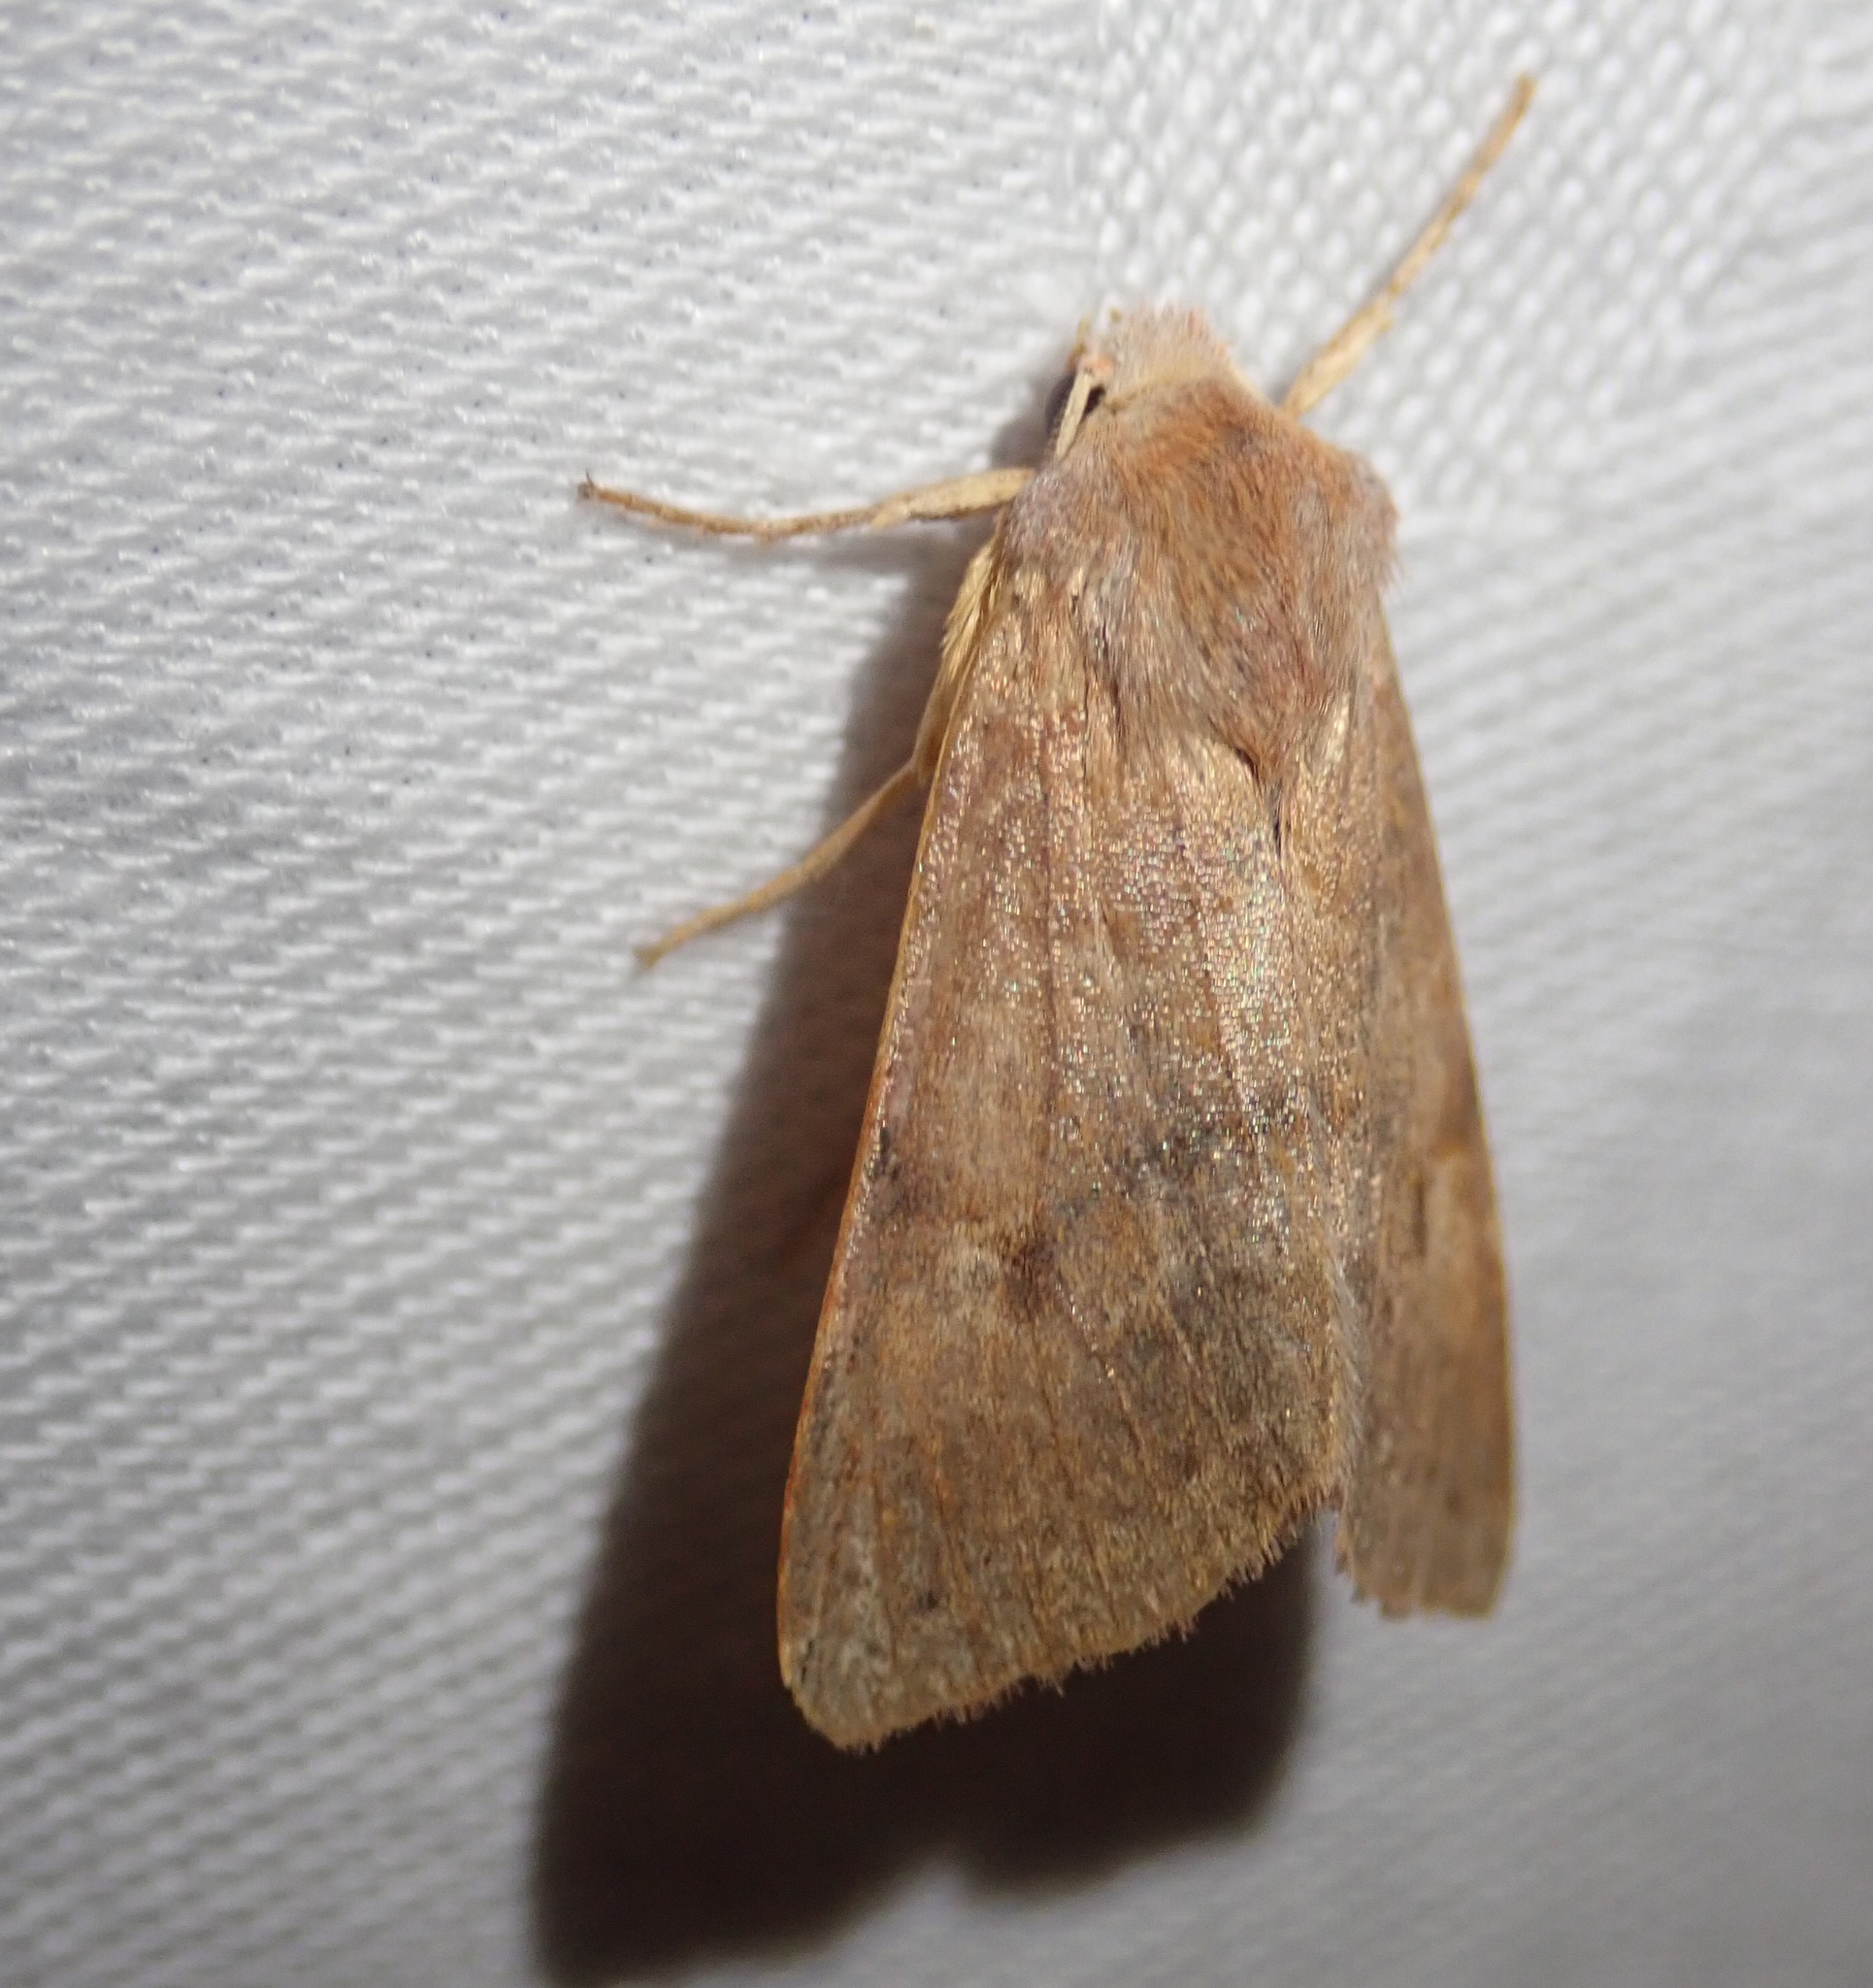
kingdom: Animalia
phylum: Arthropoda
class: Insecta
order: Lepidoptera
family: Noctuidae
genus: Agrochola
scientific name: Agrochola helvola
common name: Flounced chestnut
